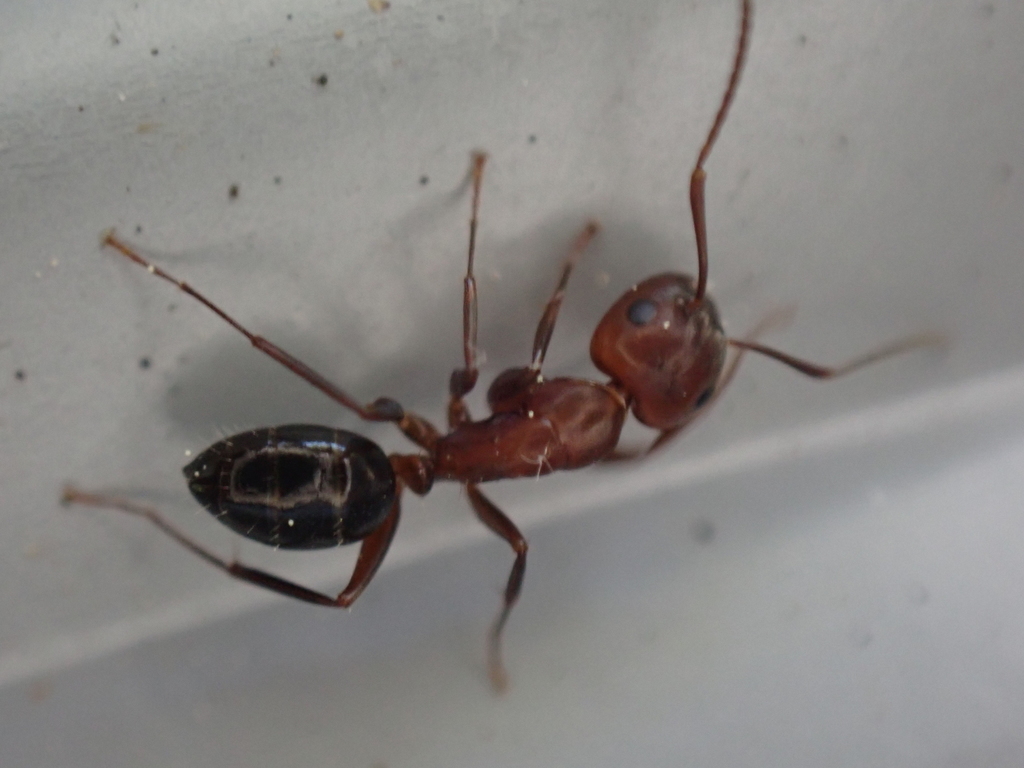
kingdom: Animalia
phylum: Arthropoda
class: Insecta
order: Hymenoptera
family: Formicidae
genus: Camponotus
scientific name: Camponotus decipiens
